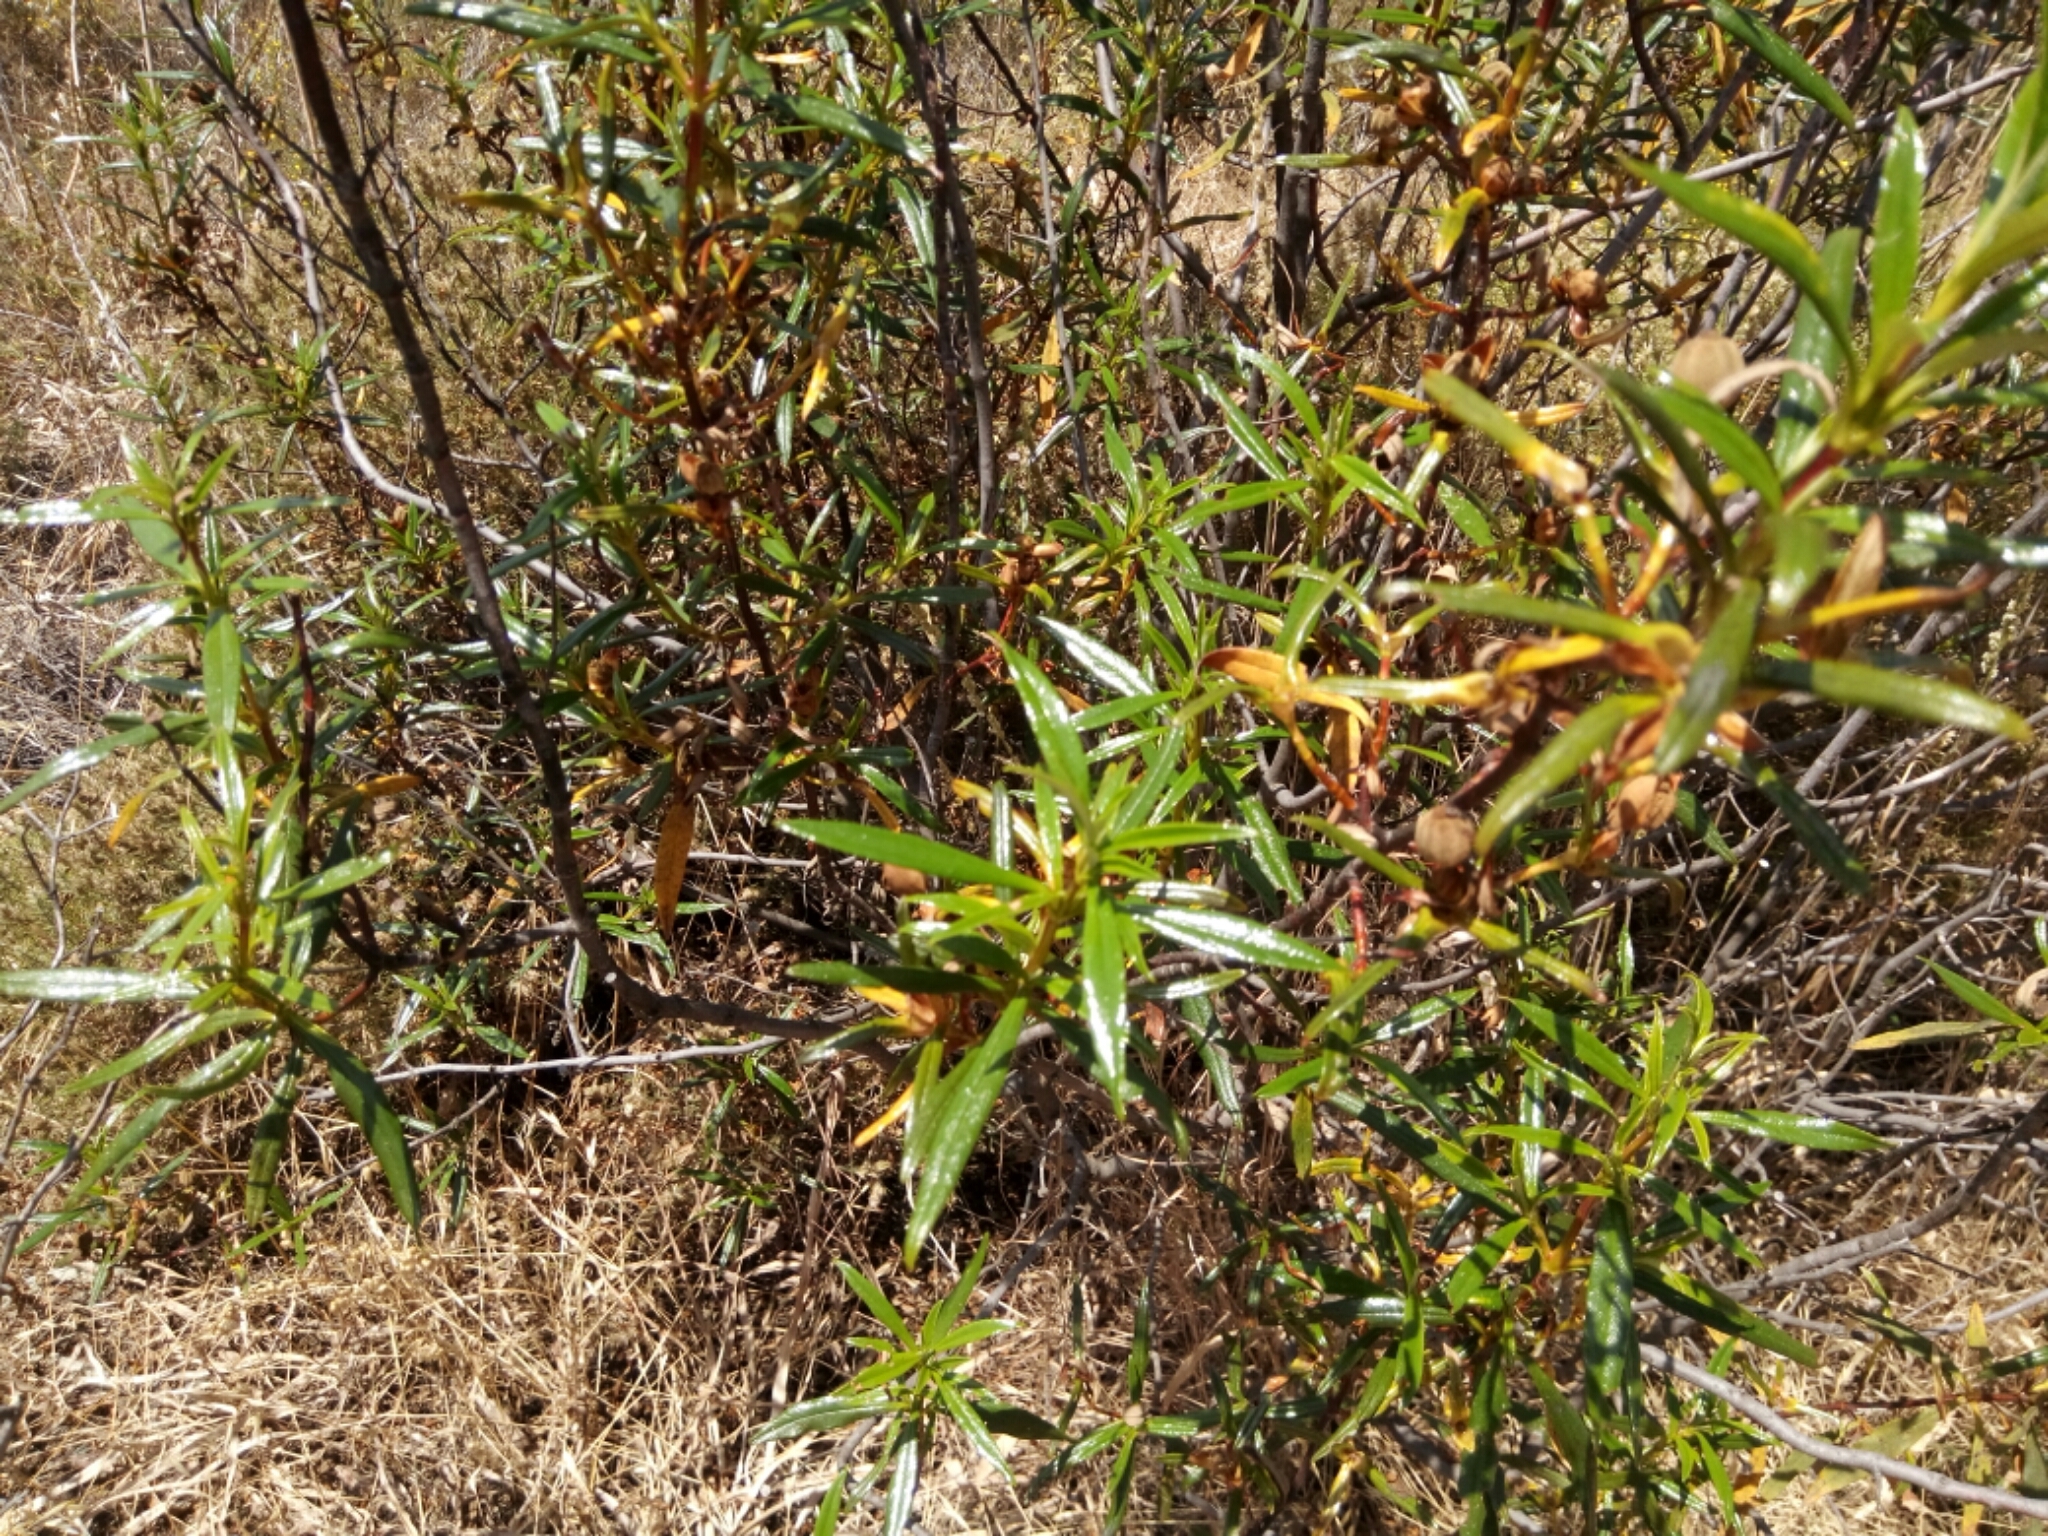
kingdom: Plantae
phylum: Tracheophyta
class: Magnoliopsida
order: Malvales
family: Cistaceae
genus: Cistus
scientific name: Cistus ladanifer
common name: Common gum cistus
